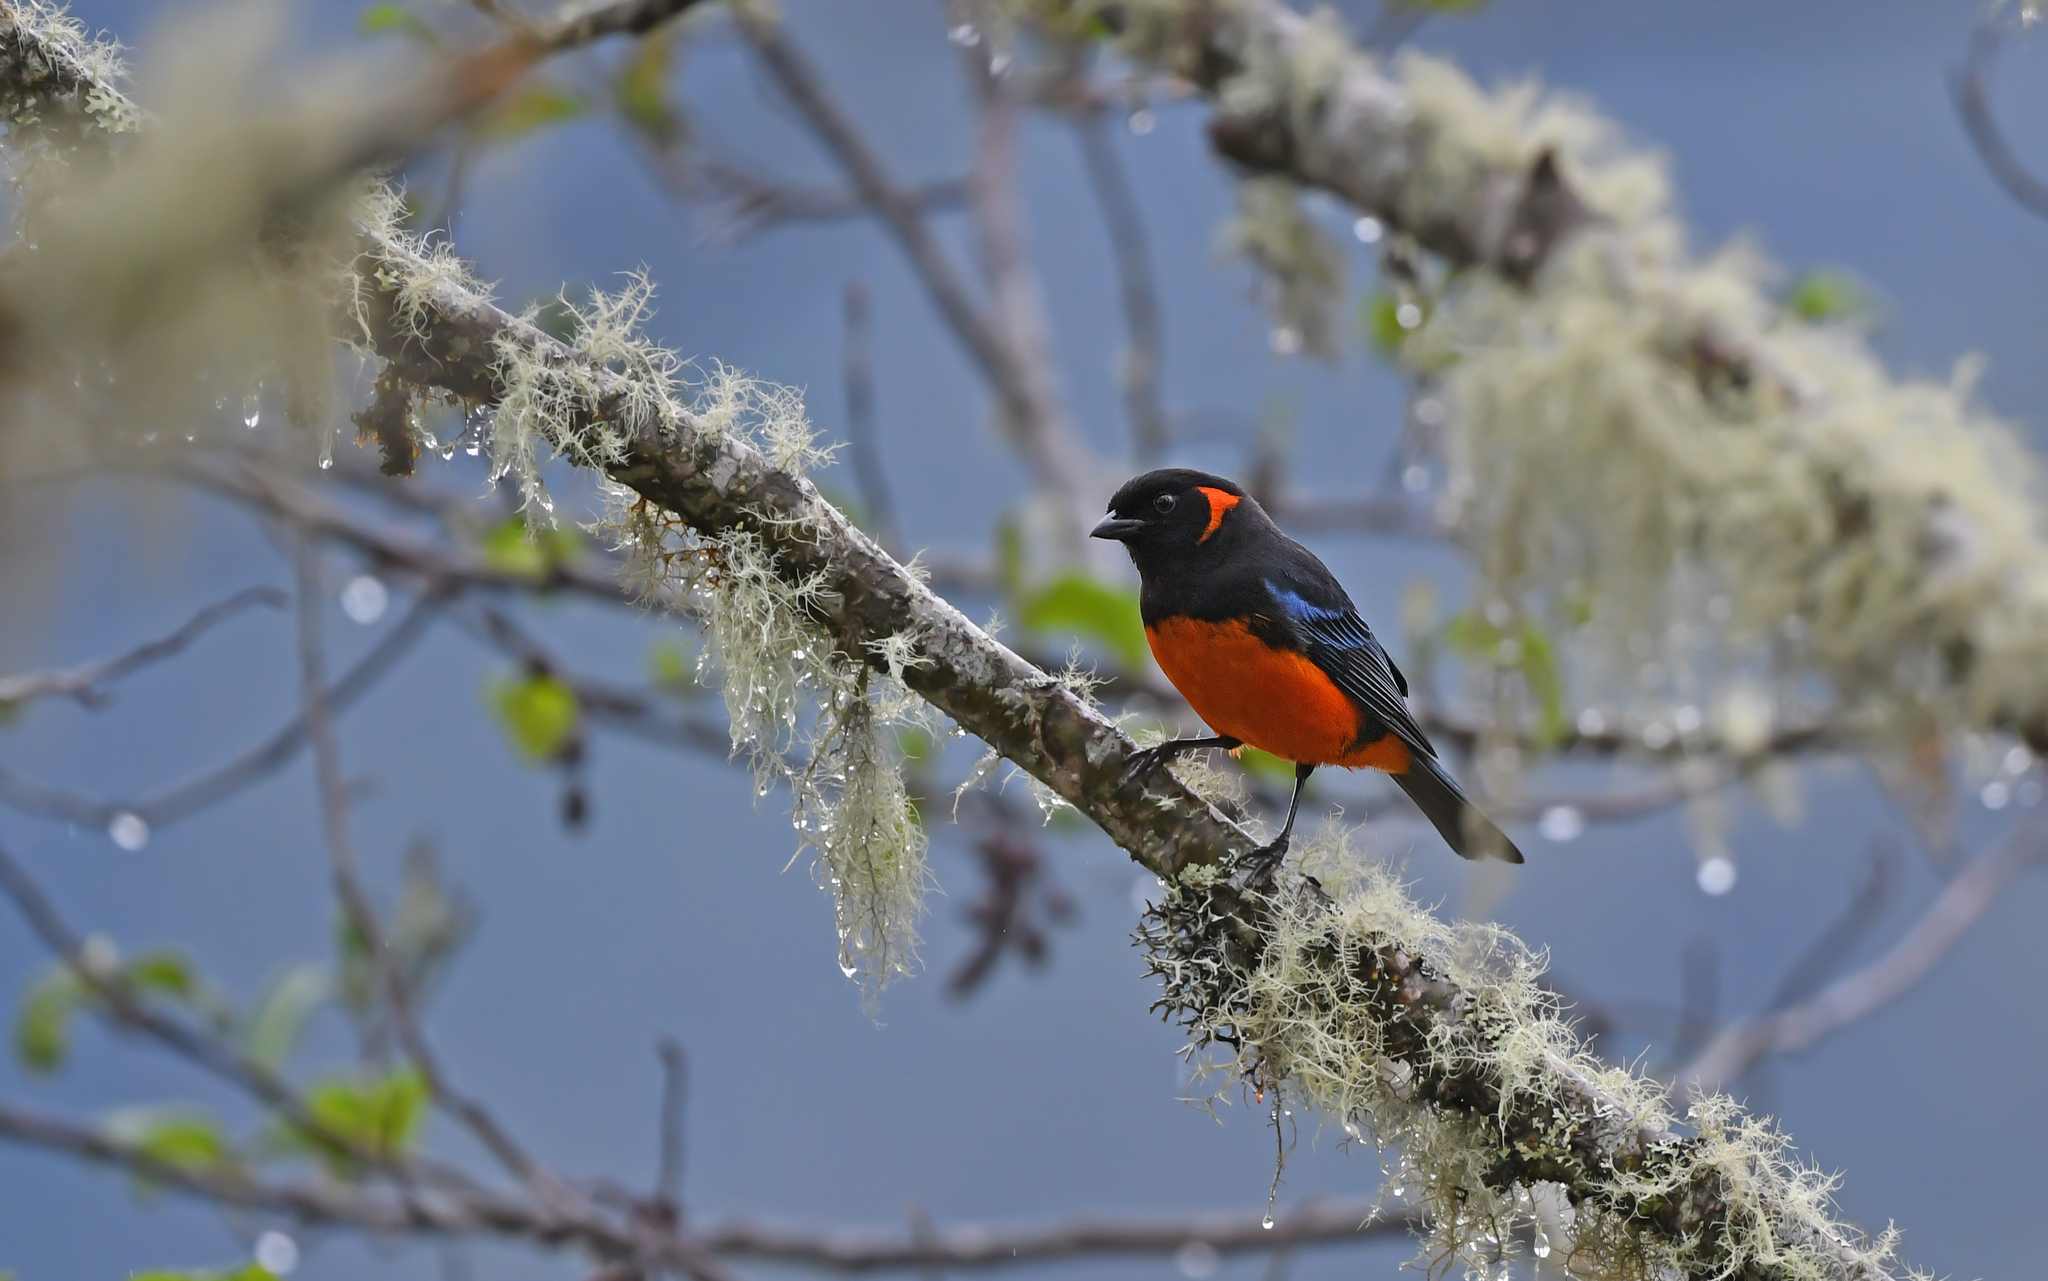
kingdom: Animalia
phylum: Chordata
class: Aves
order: Passeriformes
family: Thraupidae
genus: Anisognathus
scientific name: Anisognathus igniventris
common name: Scarlet-bellied mountain tanager
